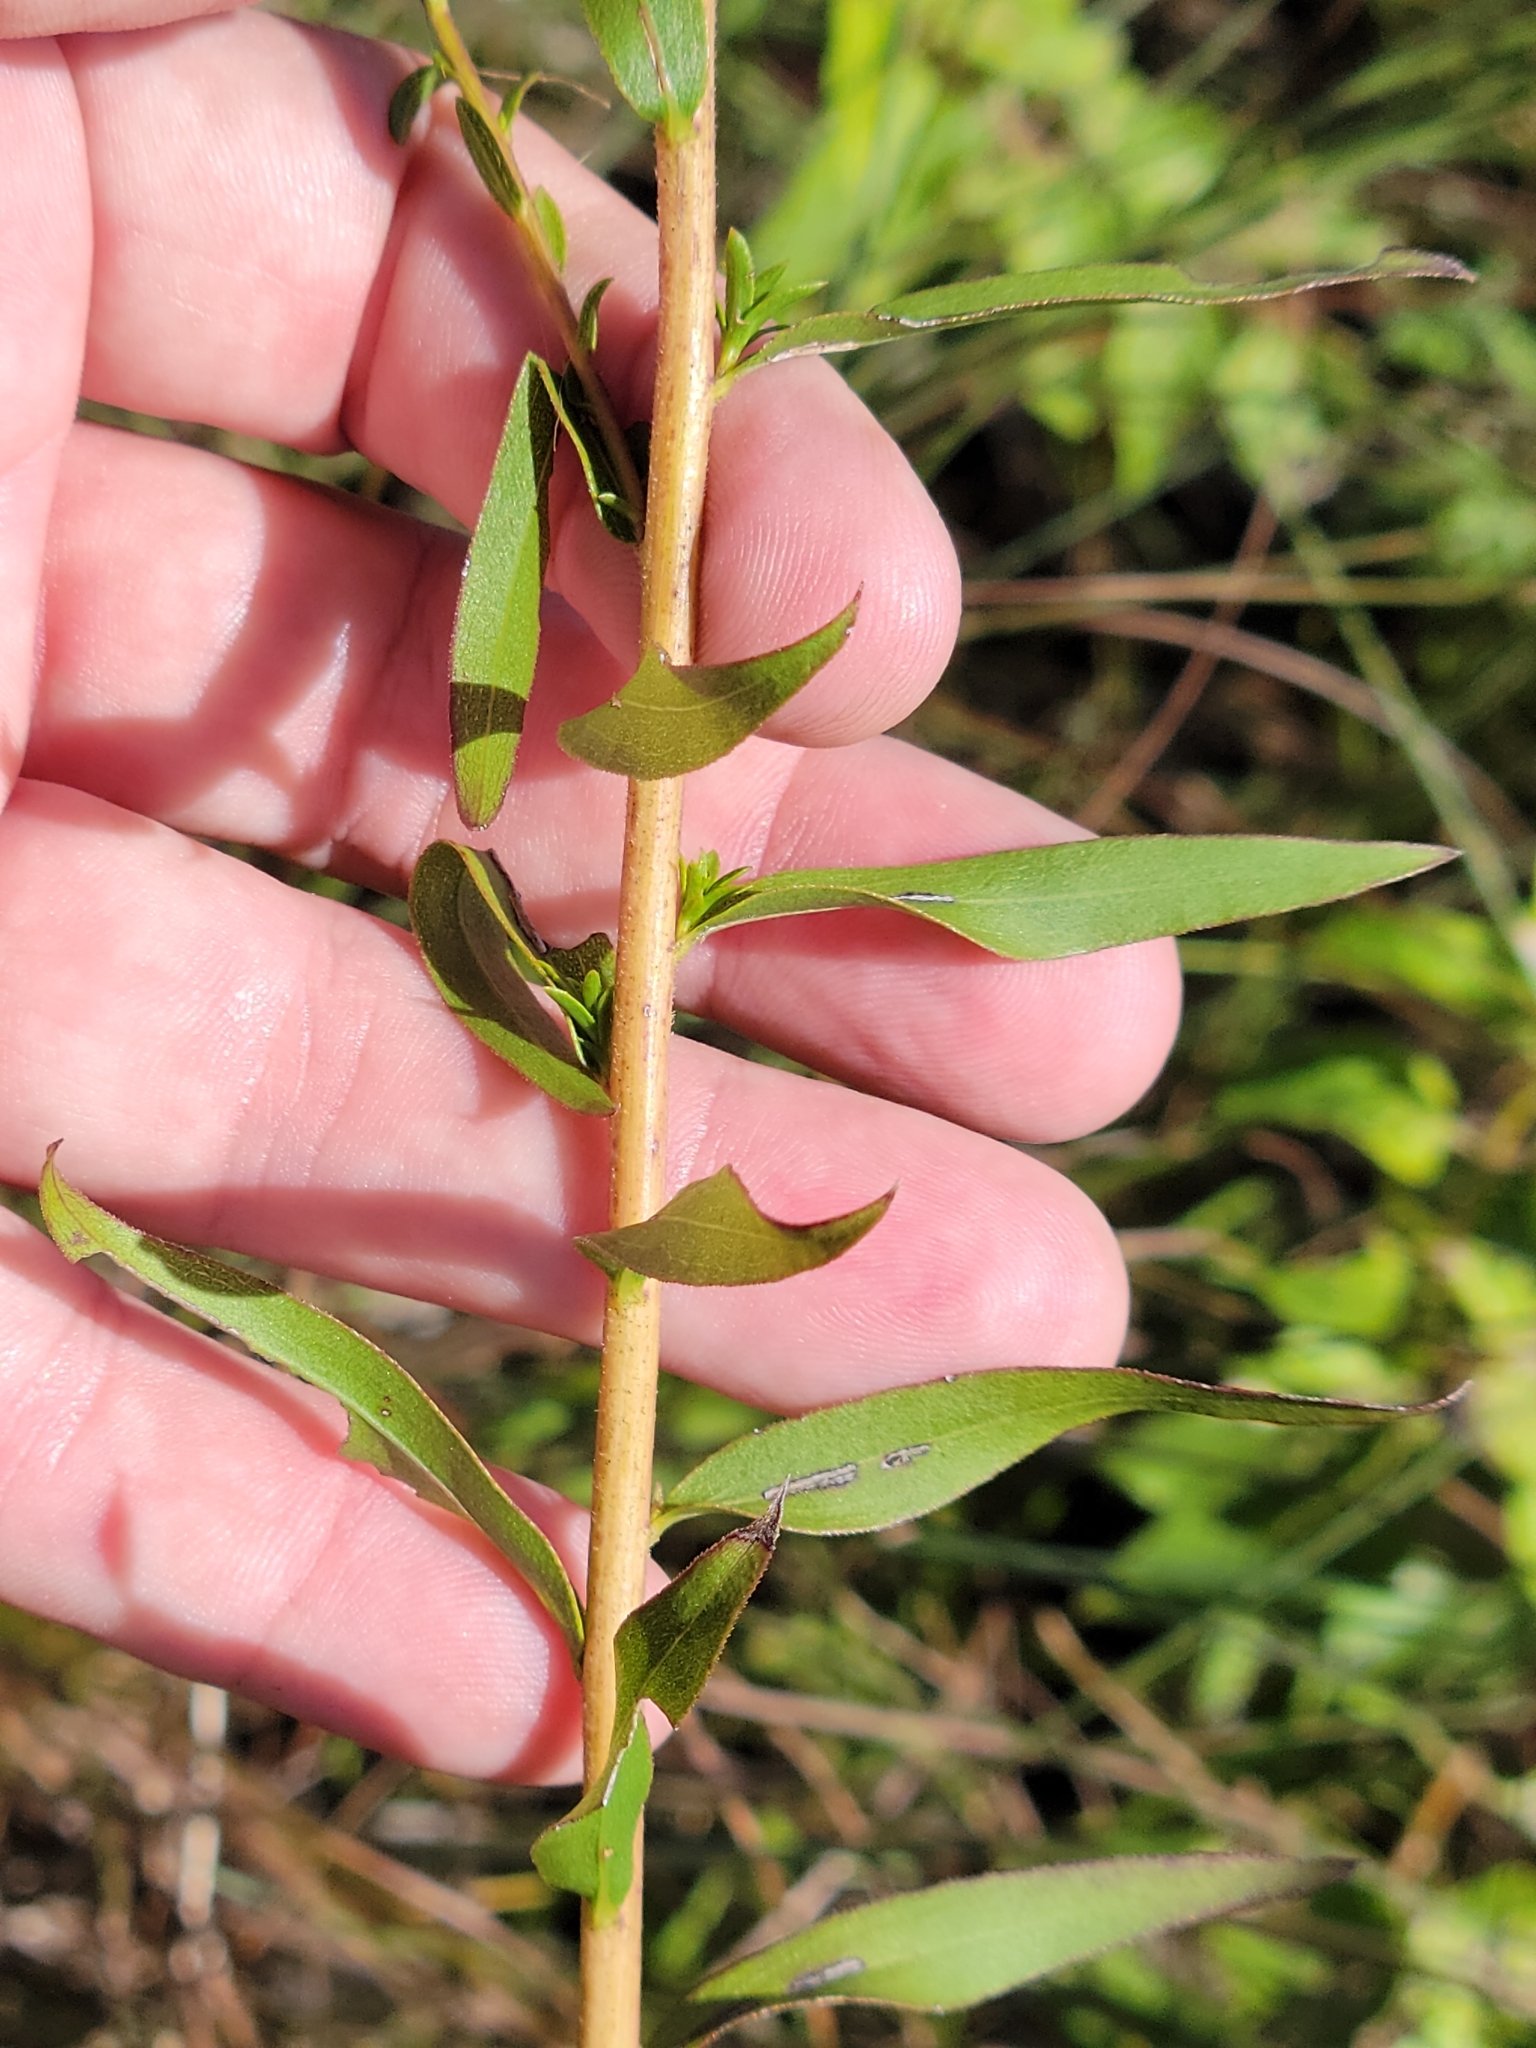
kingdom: Plantae
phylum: Tracheophyta
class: Magnoliopsida
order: Asterales
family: Asteraceae
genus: Solidago
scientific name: Solidago tortifolia
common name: Twisted-leaf goldenrod
